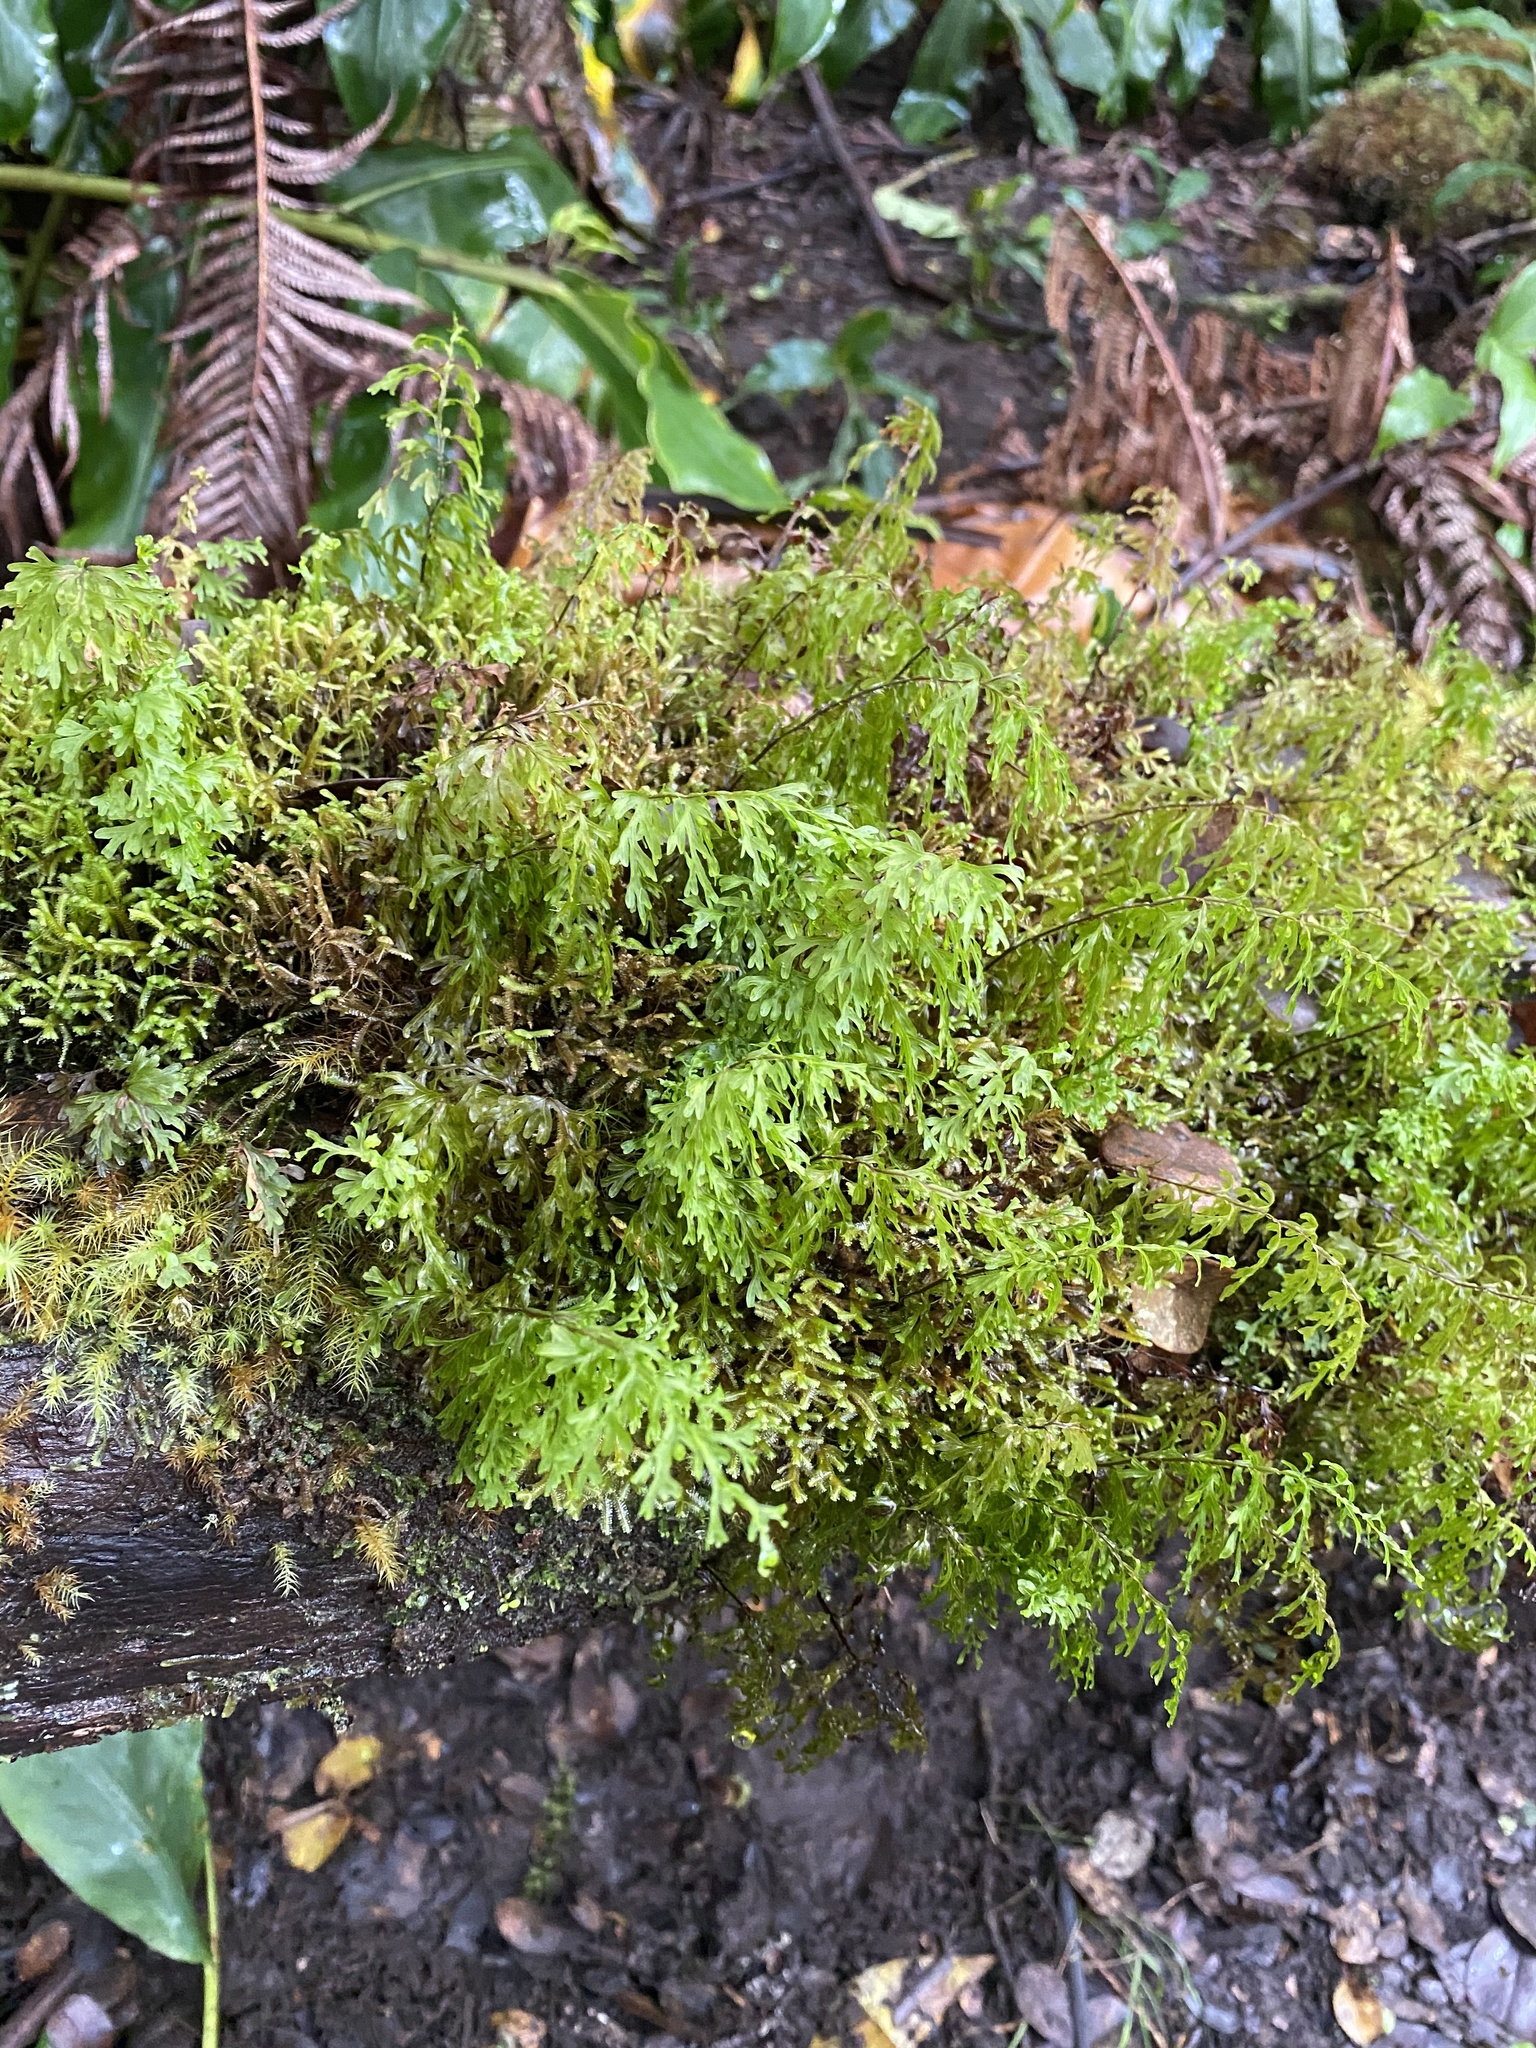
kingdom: Plantae
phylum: Tracheophyta
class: Polypodiopsida
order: Hymenophyllales
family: Hymenophyllaceae
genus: Hymenophyllum
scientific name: Hymenophyllum recurvum
